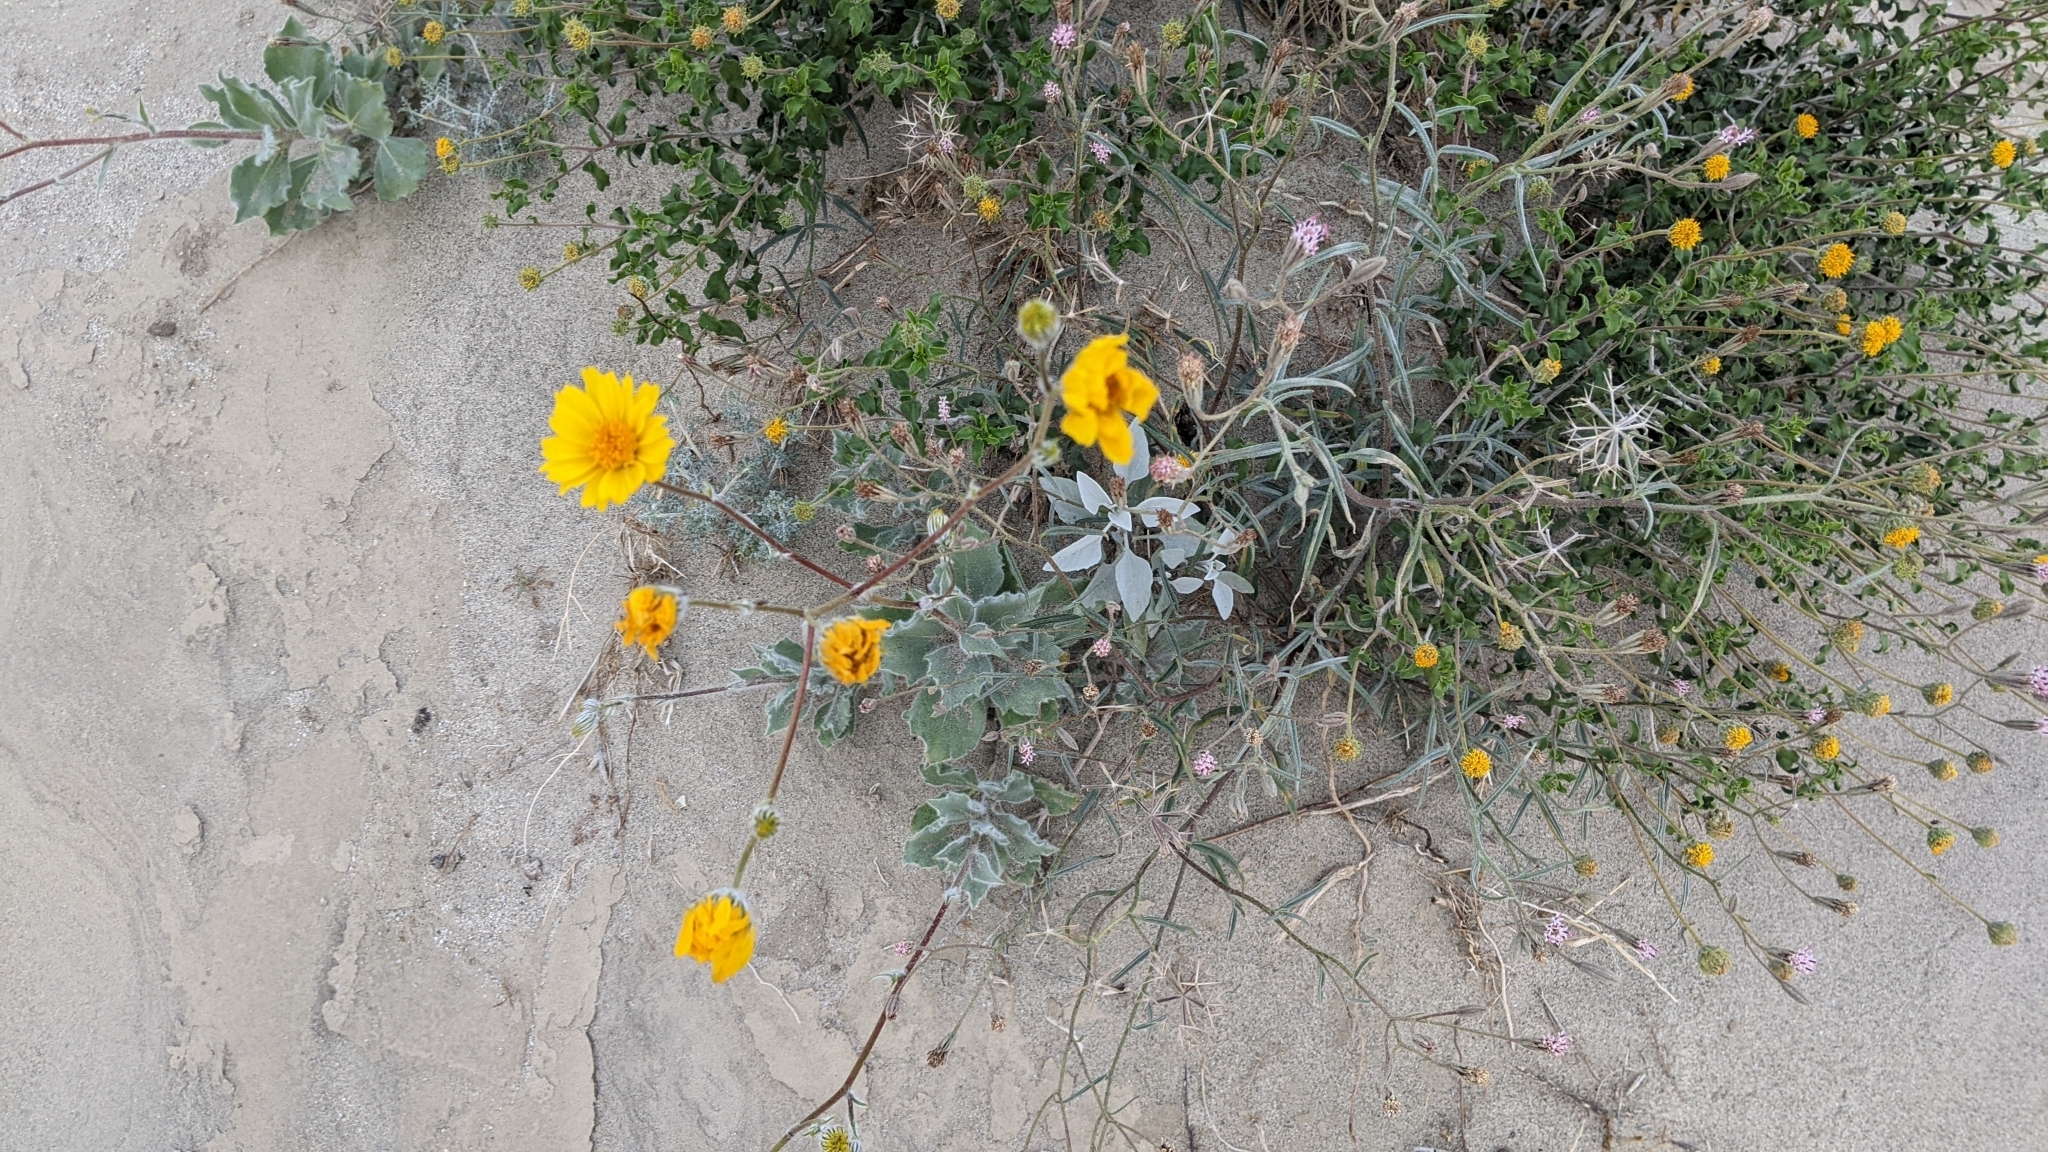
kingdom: Plantae
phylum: Tracheophyta
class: Magnoliopsida
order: Asterales
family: Asteraceae
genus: Geraea
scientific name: Geraea canescens
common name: Desert-gold
